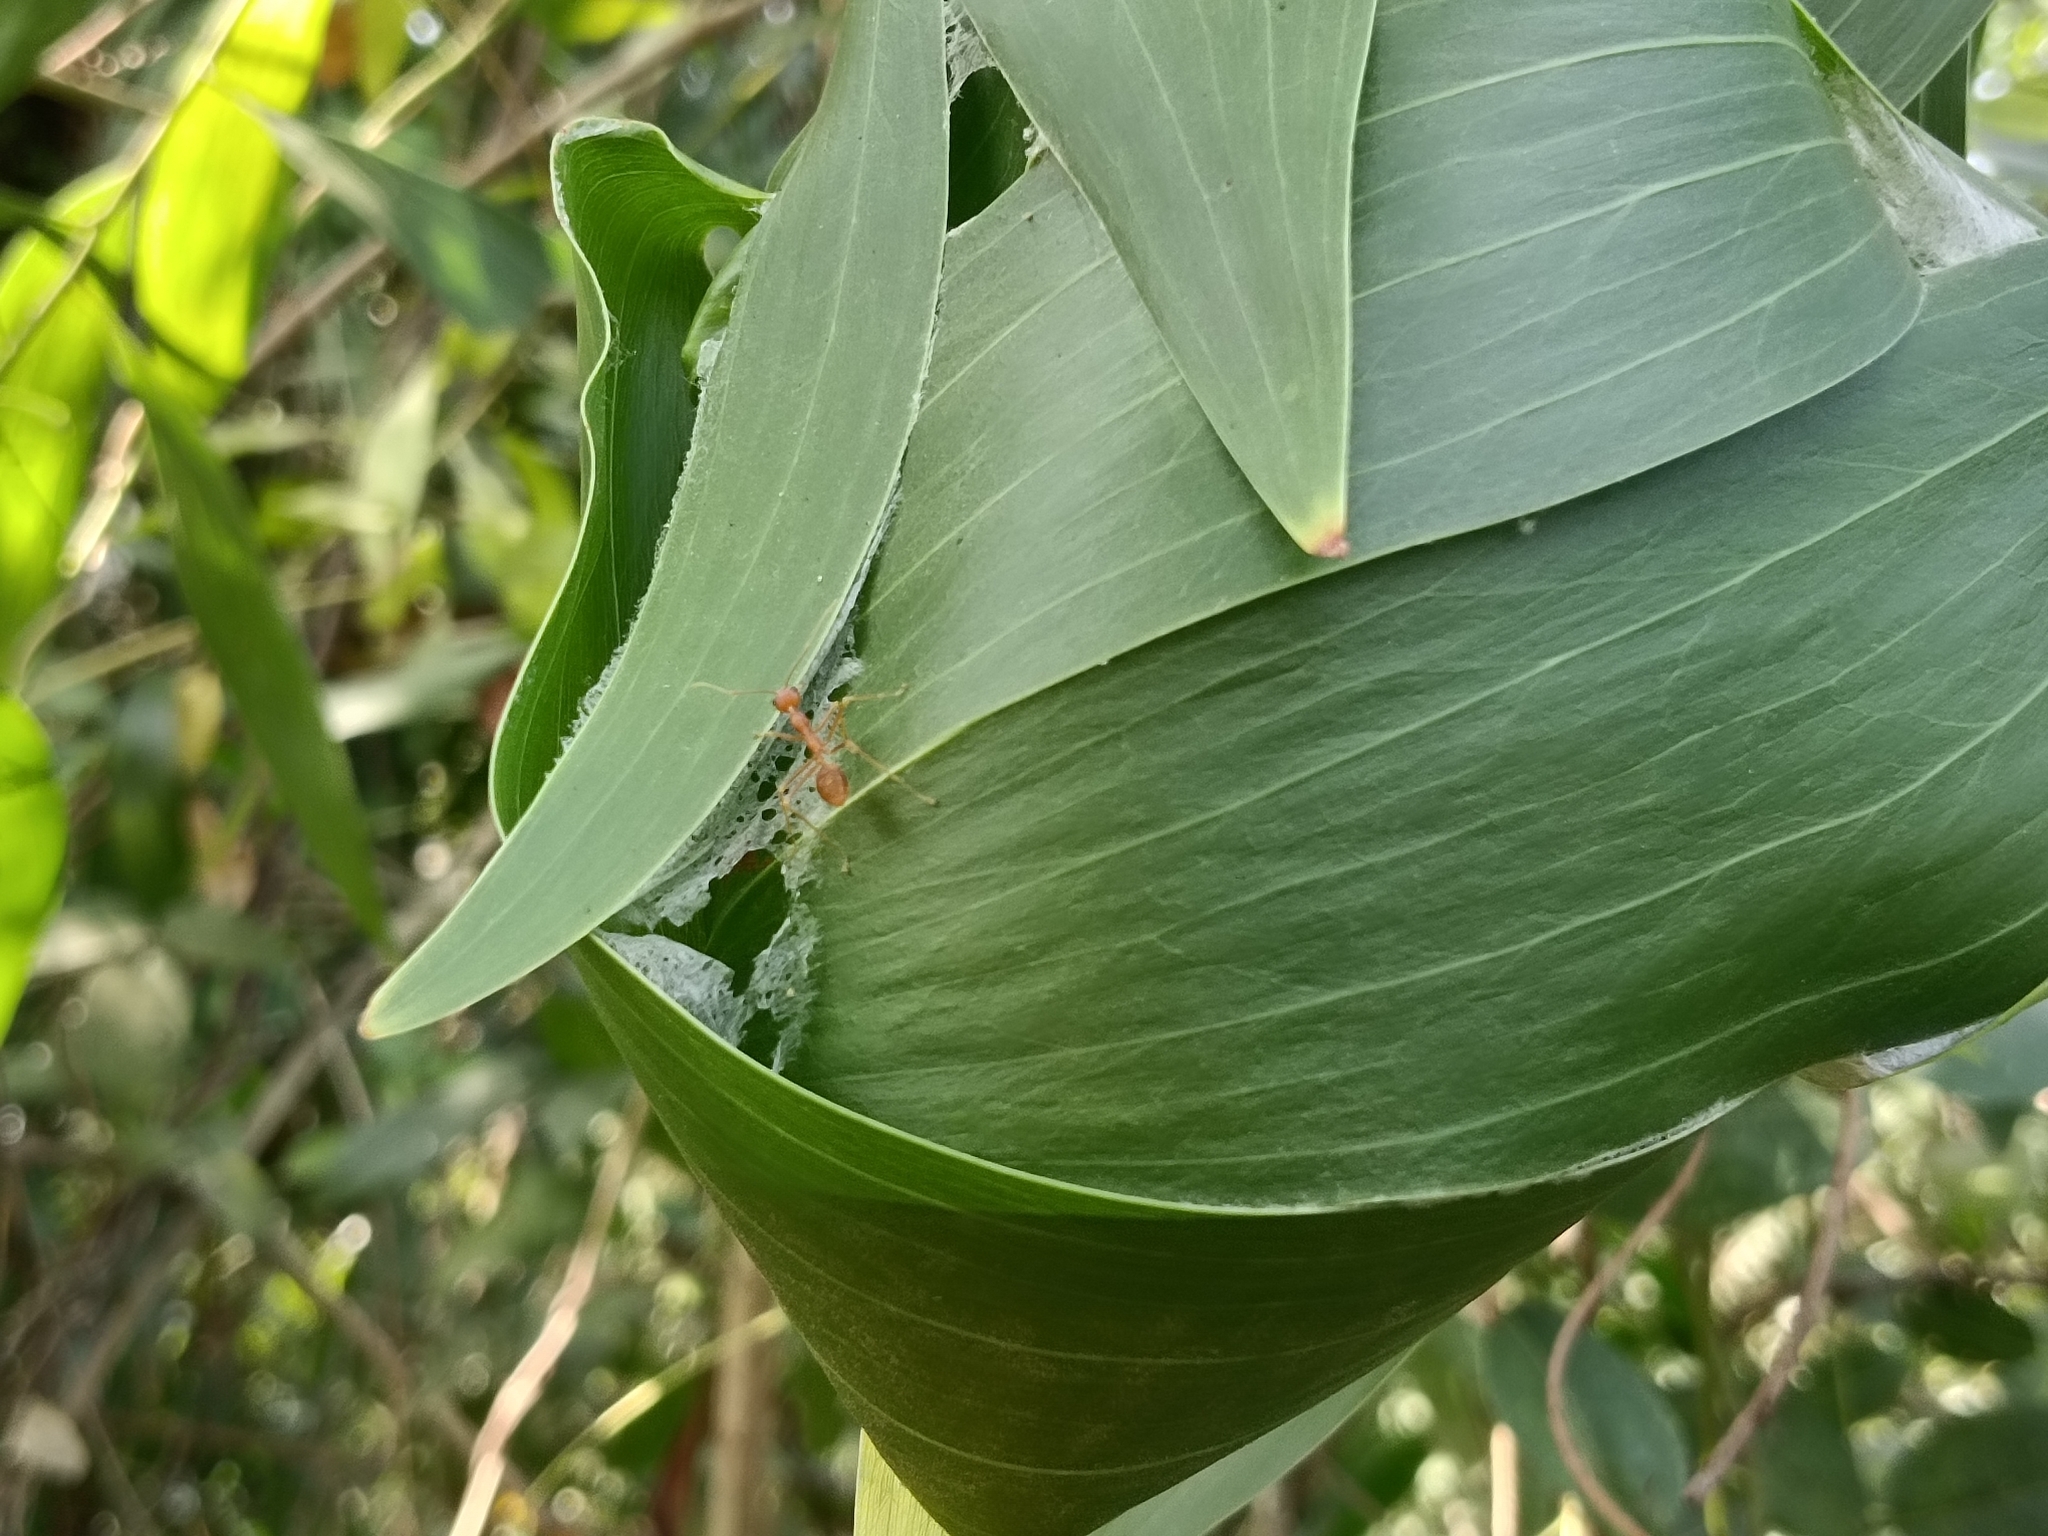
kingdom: Animalia
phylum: Arthropoda
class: Insecta
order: Hymenoptera
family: Formicidae
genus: Oecophylla
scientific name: Oecophylla smaragdina
